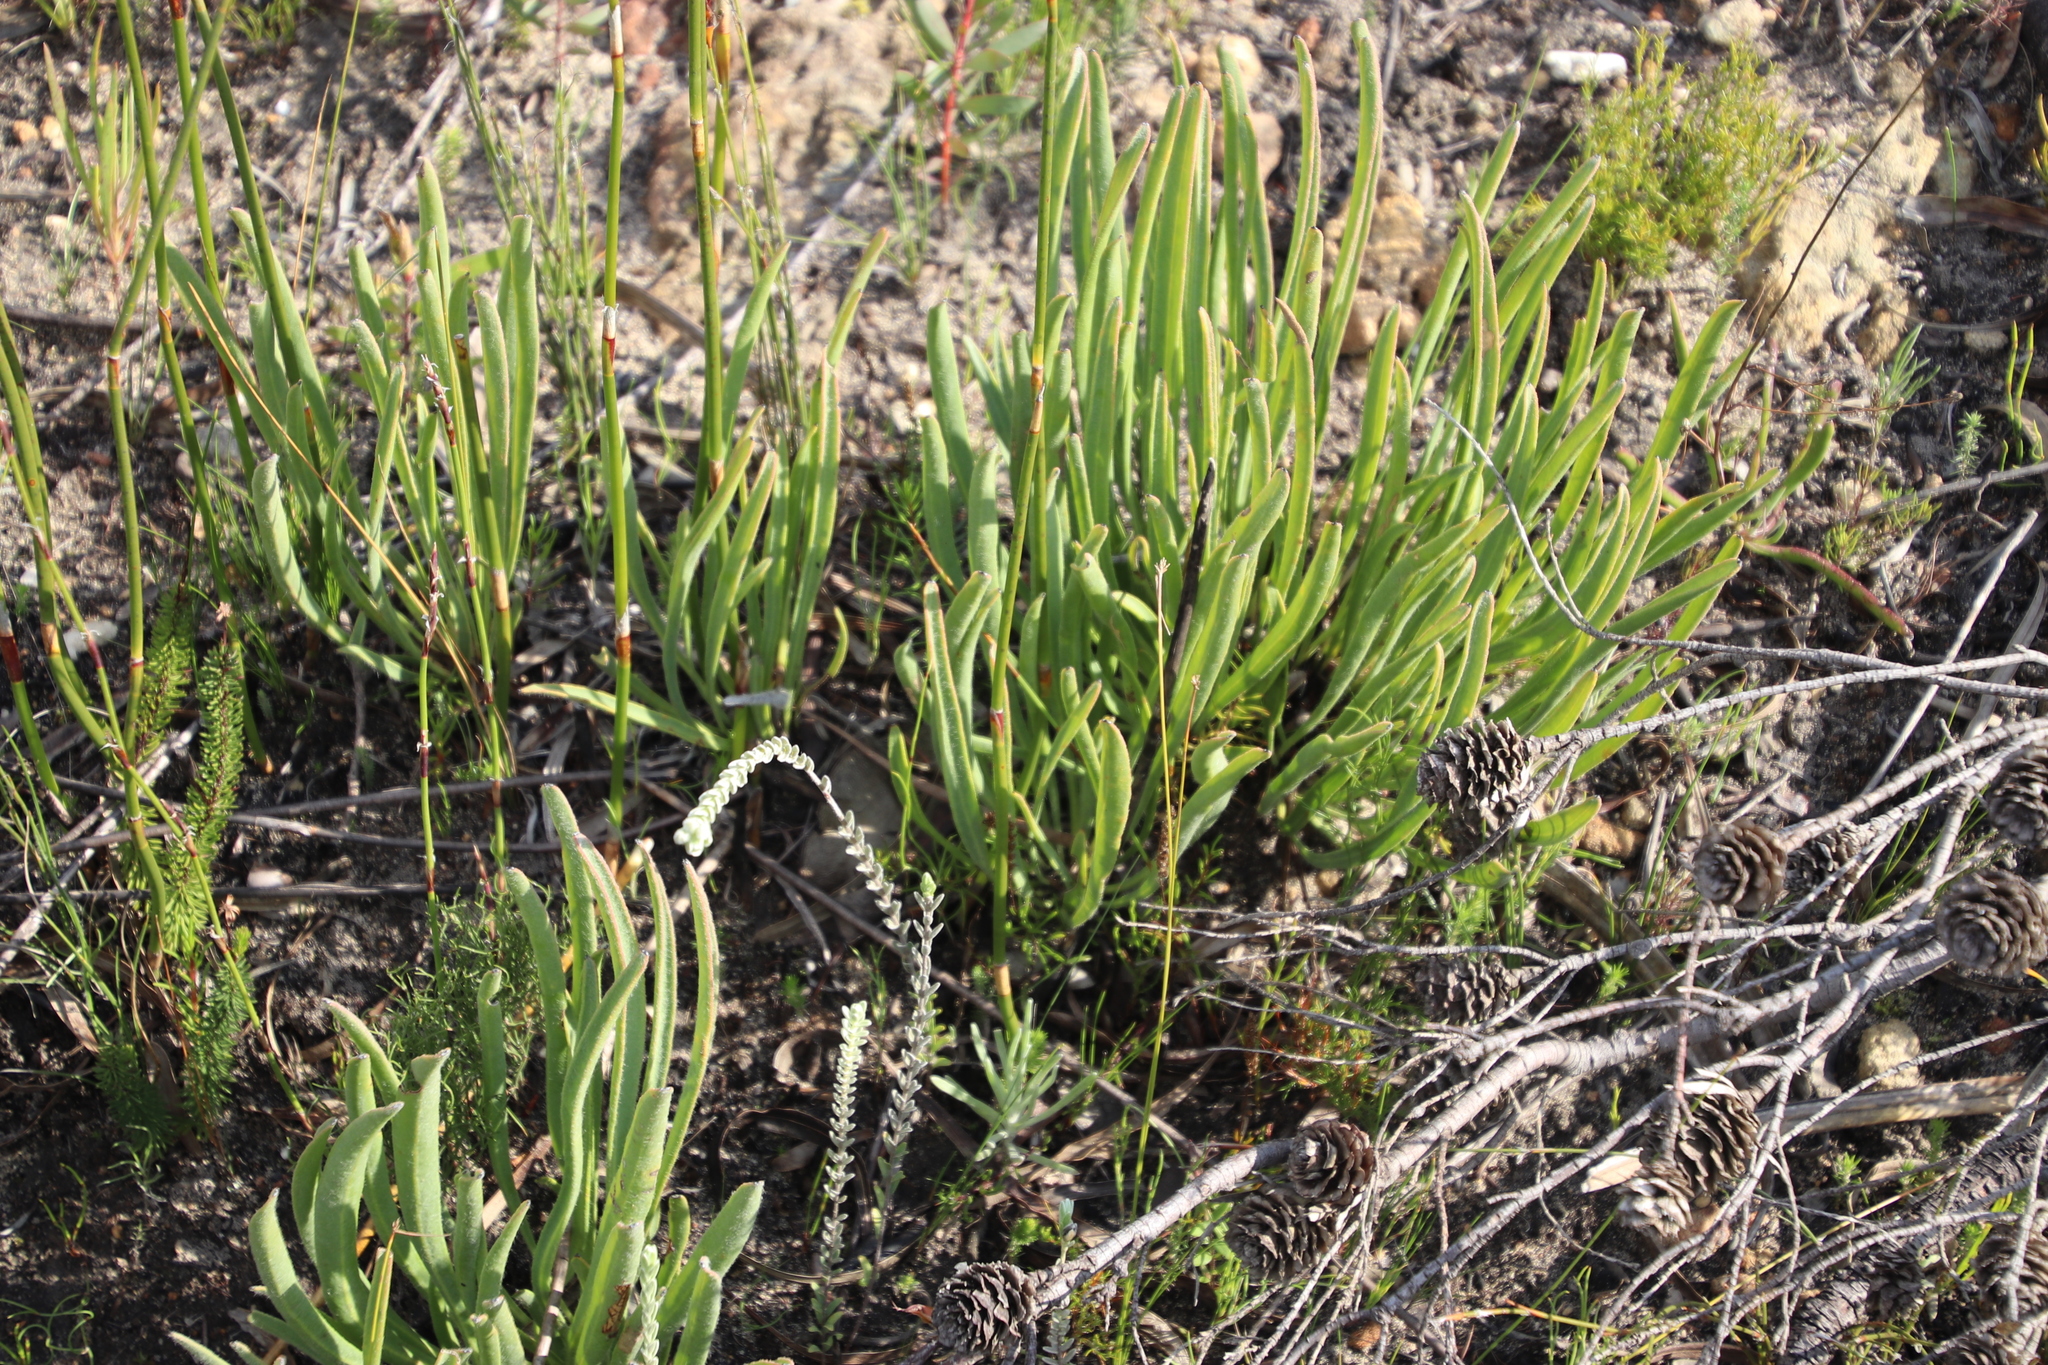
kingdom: Plantae
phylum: Tracheophyta
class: Magnoliopsida
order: Proteales
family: Proteaceae
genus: Protea
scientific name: Protea scabra
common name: Sandpaper-leaf sugarbush
